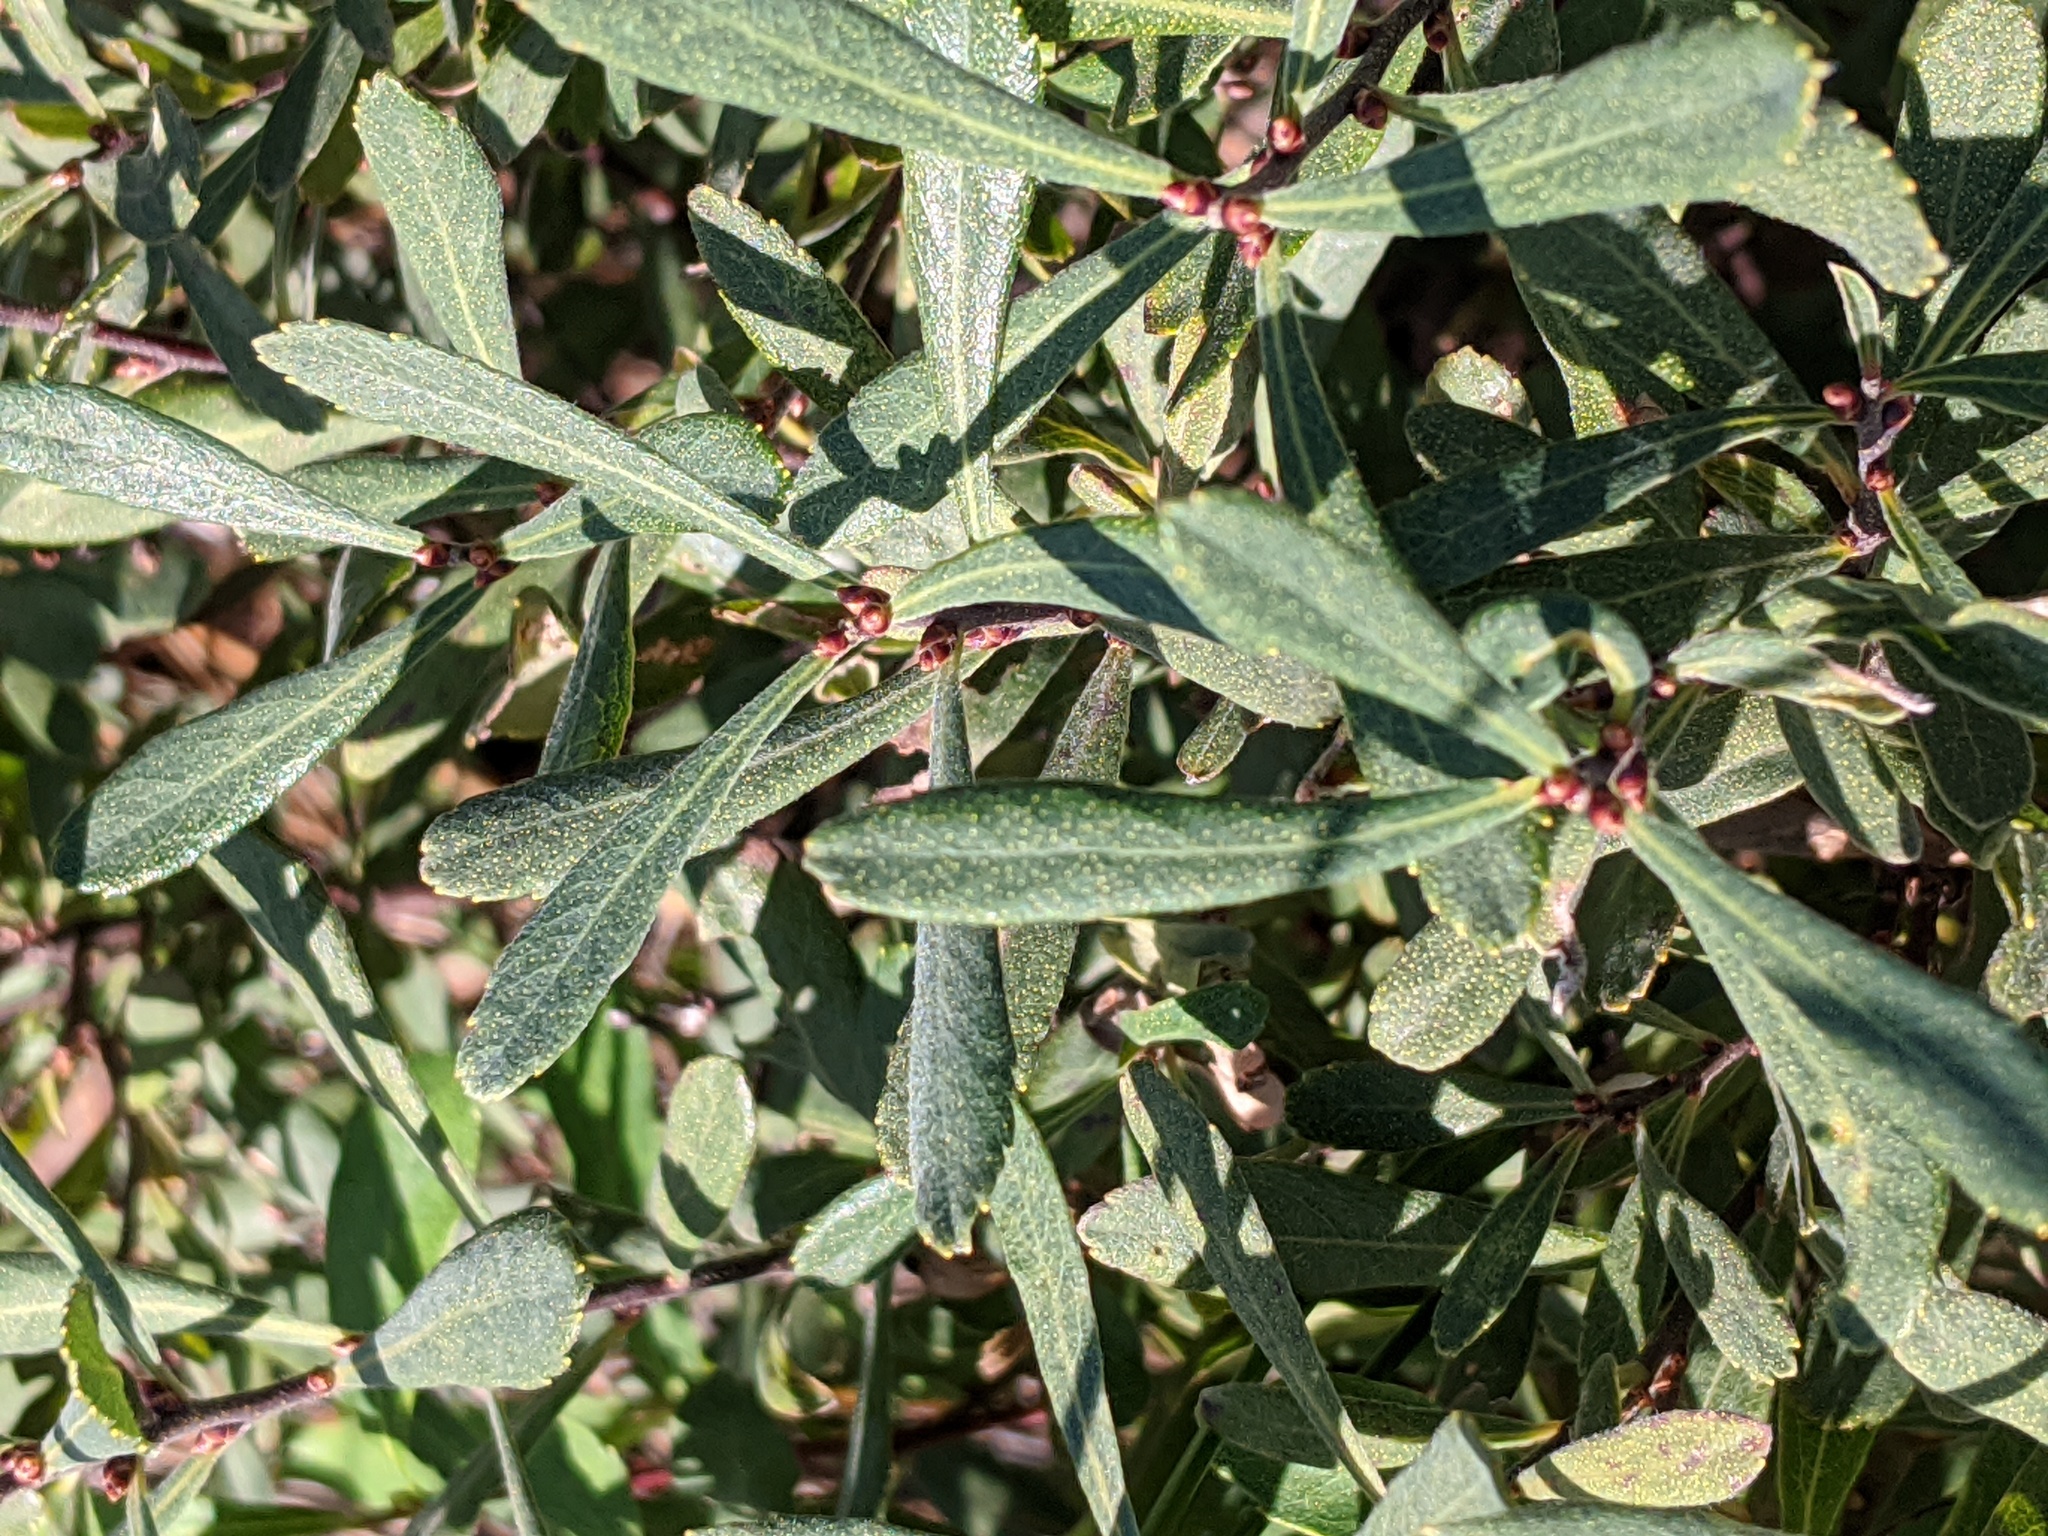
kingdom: Plantae
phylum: Tracheophyta
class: Magnoliopsida
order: Fagales
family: Myricaceae
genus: Myrica
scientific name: Myrica gale
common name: Sweet gale
